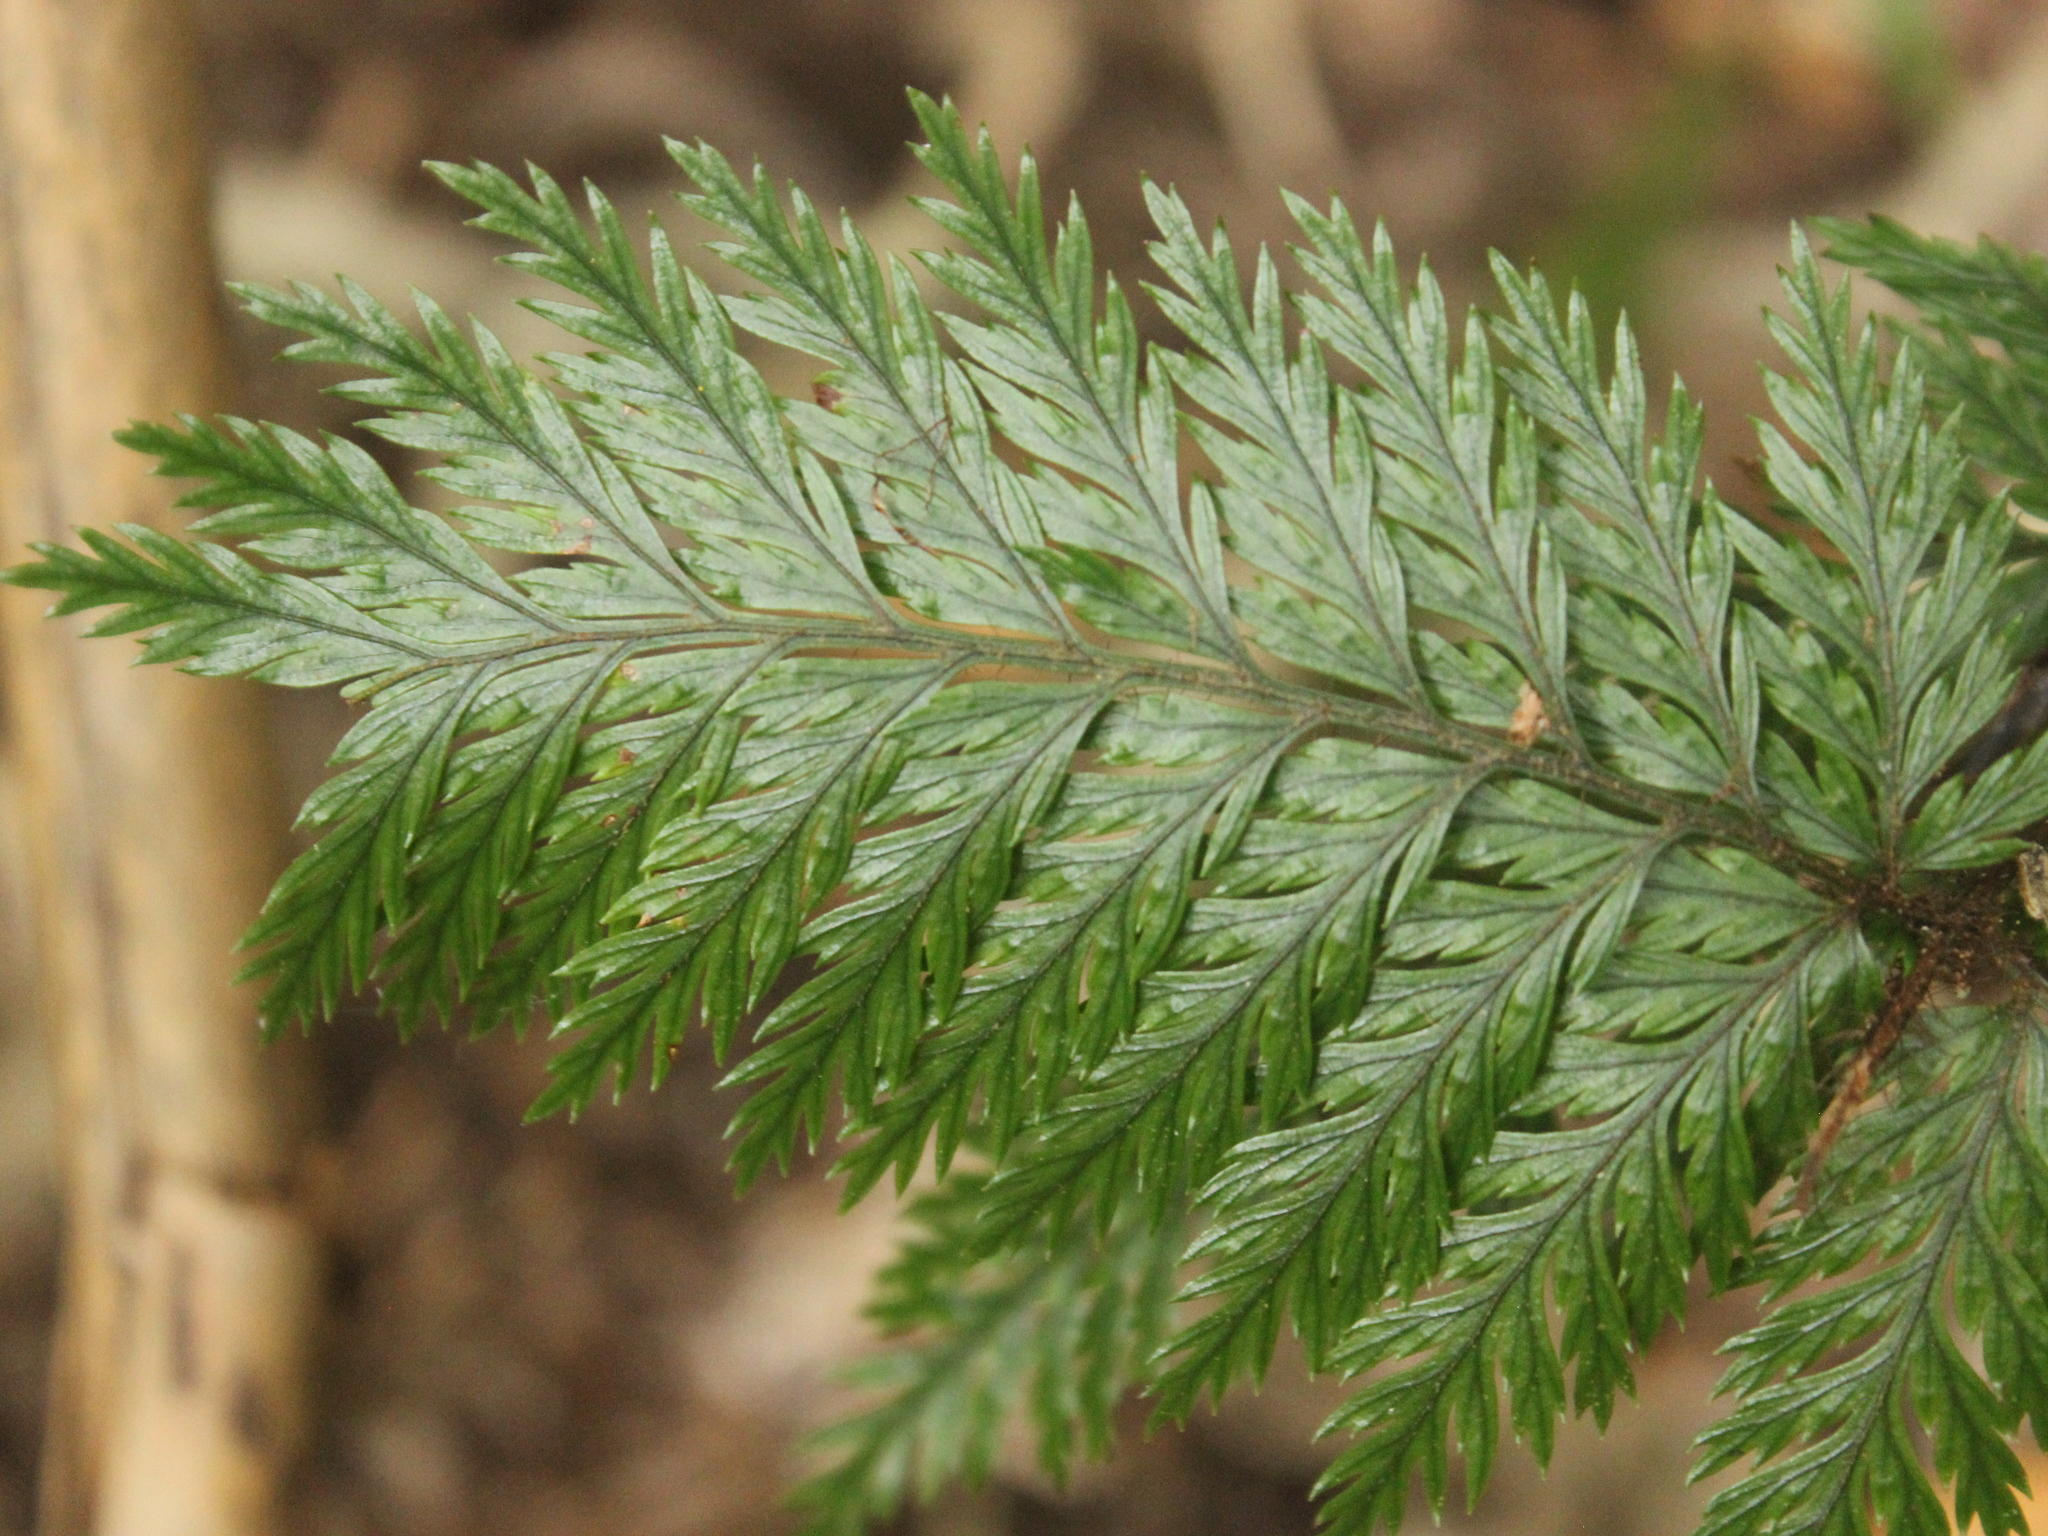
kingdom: Plantae
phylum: Tracheophyta
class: Polypodiopsida
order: Polypodiales
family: Dryopteridaceae
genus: Lastreopsis
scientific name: Lastreopsis hispida
